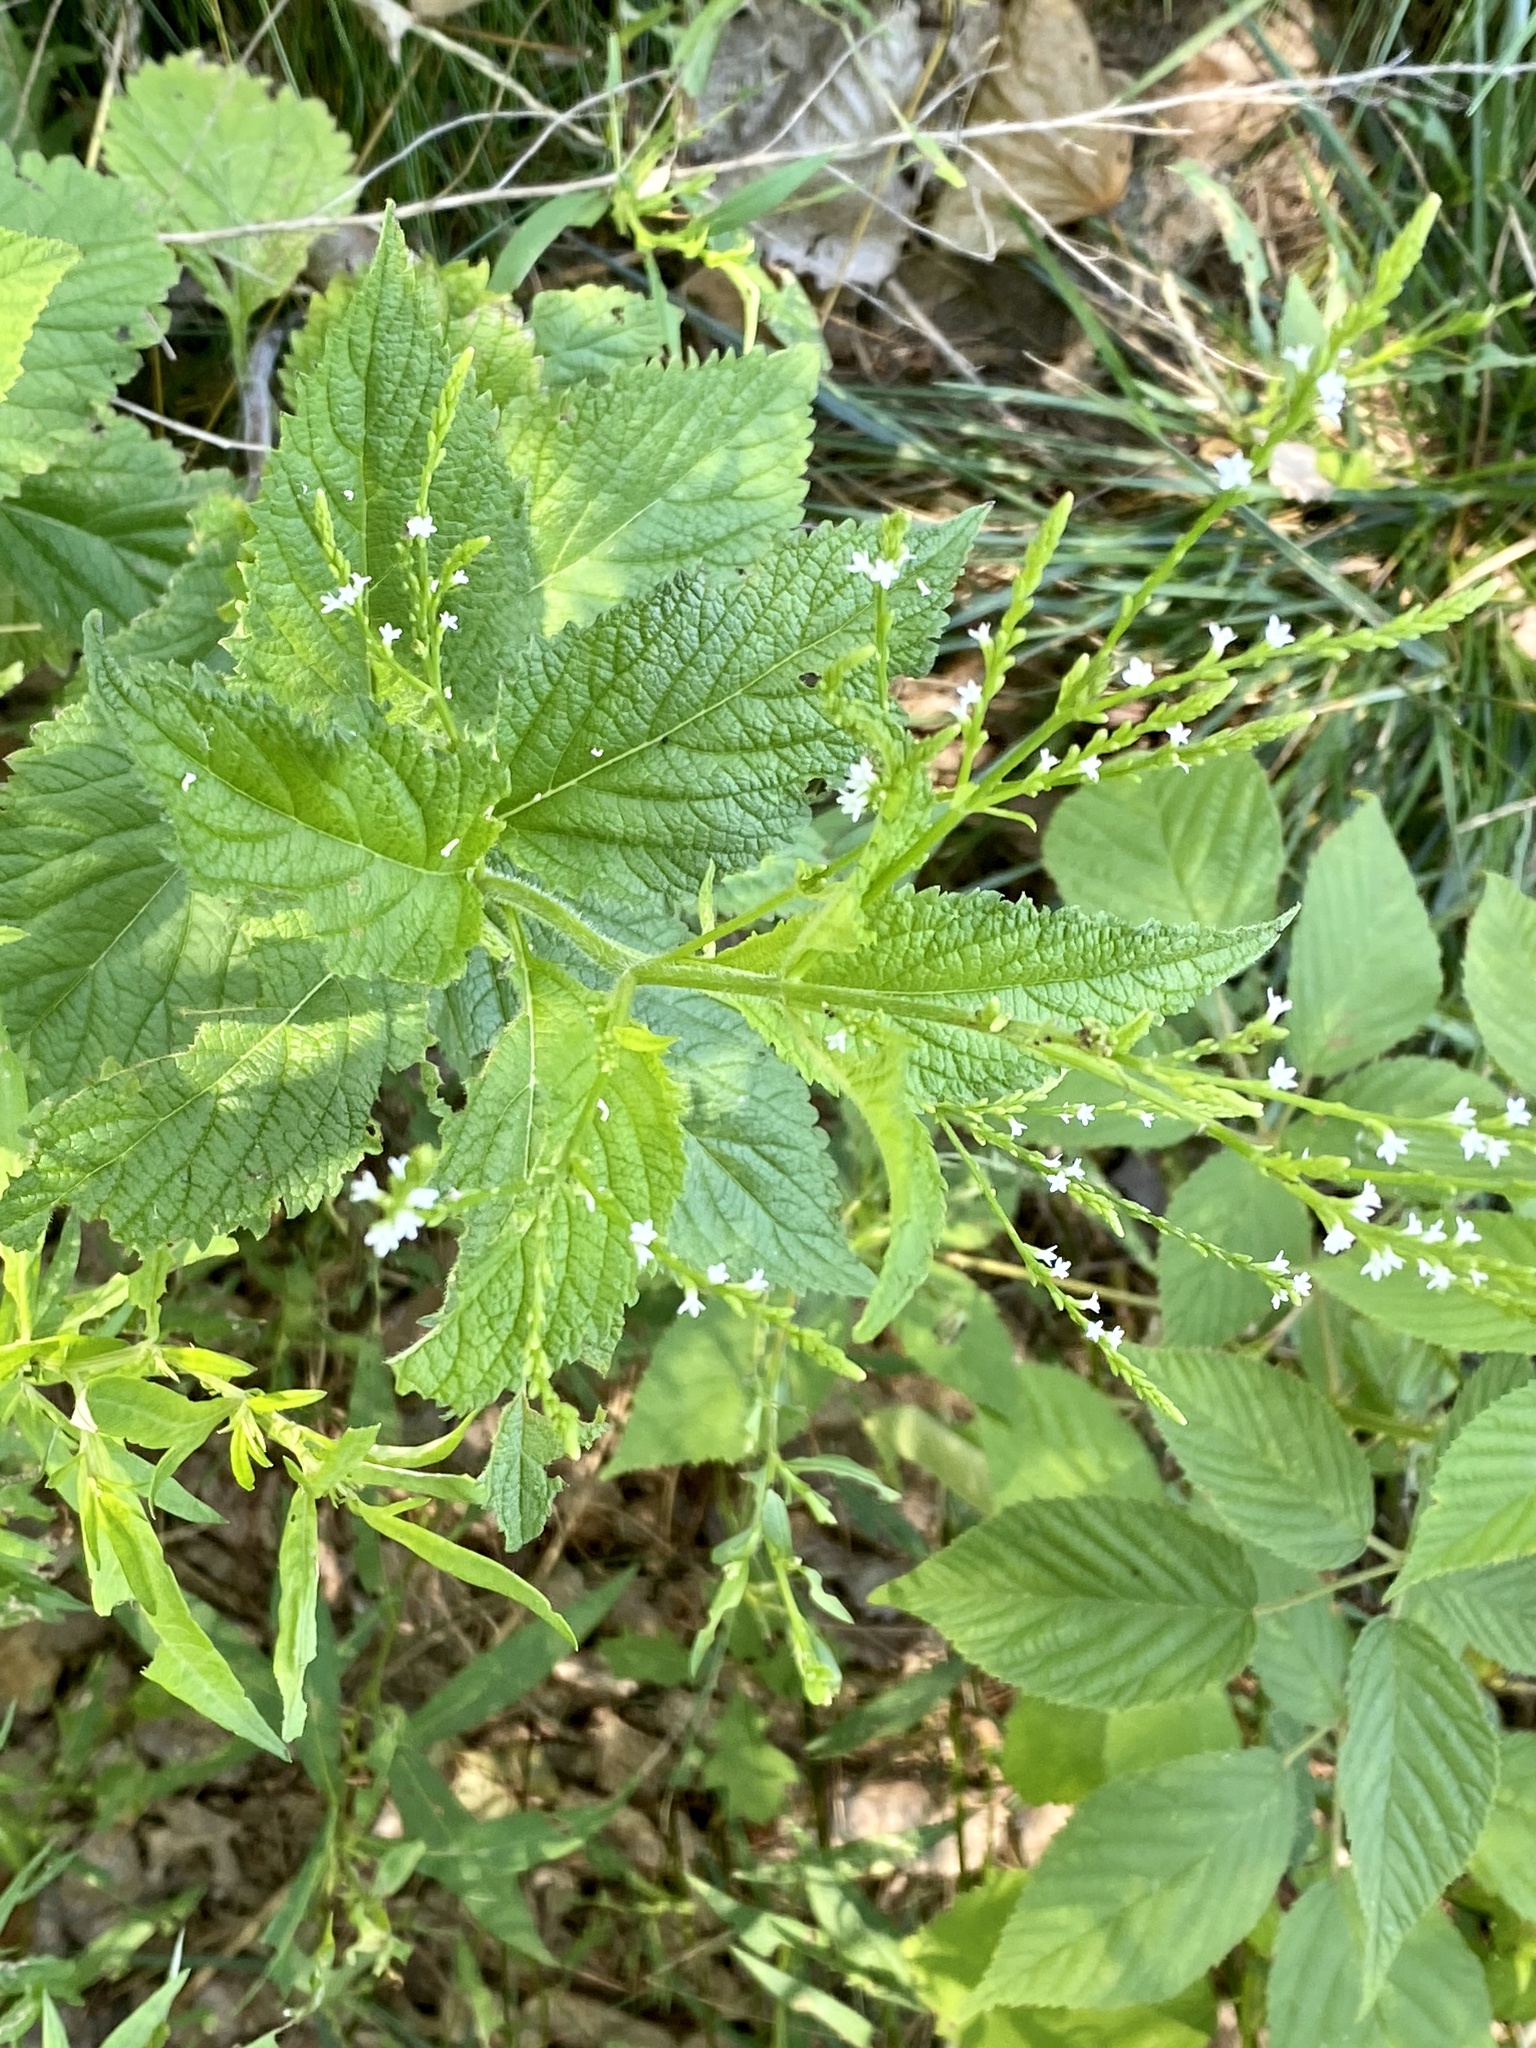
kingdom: Plantae
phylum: Tracheophyta
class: Magnoliopsida
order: Lamiales
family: Verbenaceae
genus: Verbena
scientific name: Verbena urticifolia
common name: Nettle-leaved vervain
